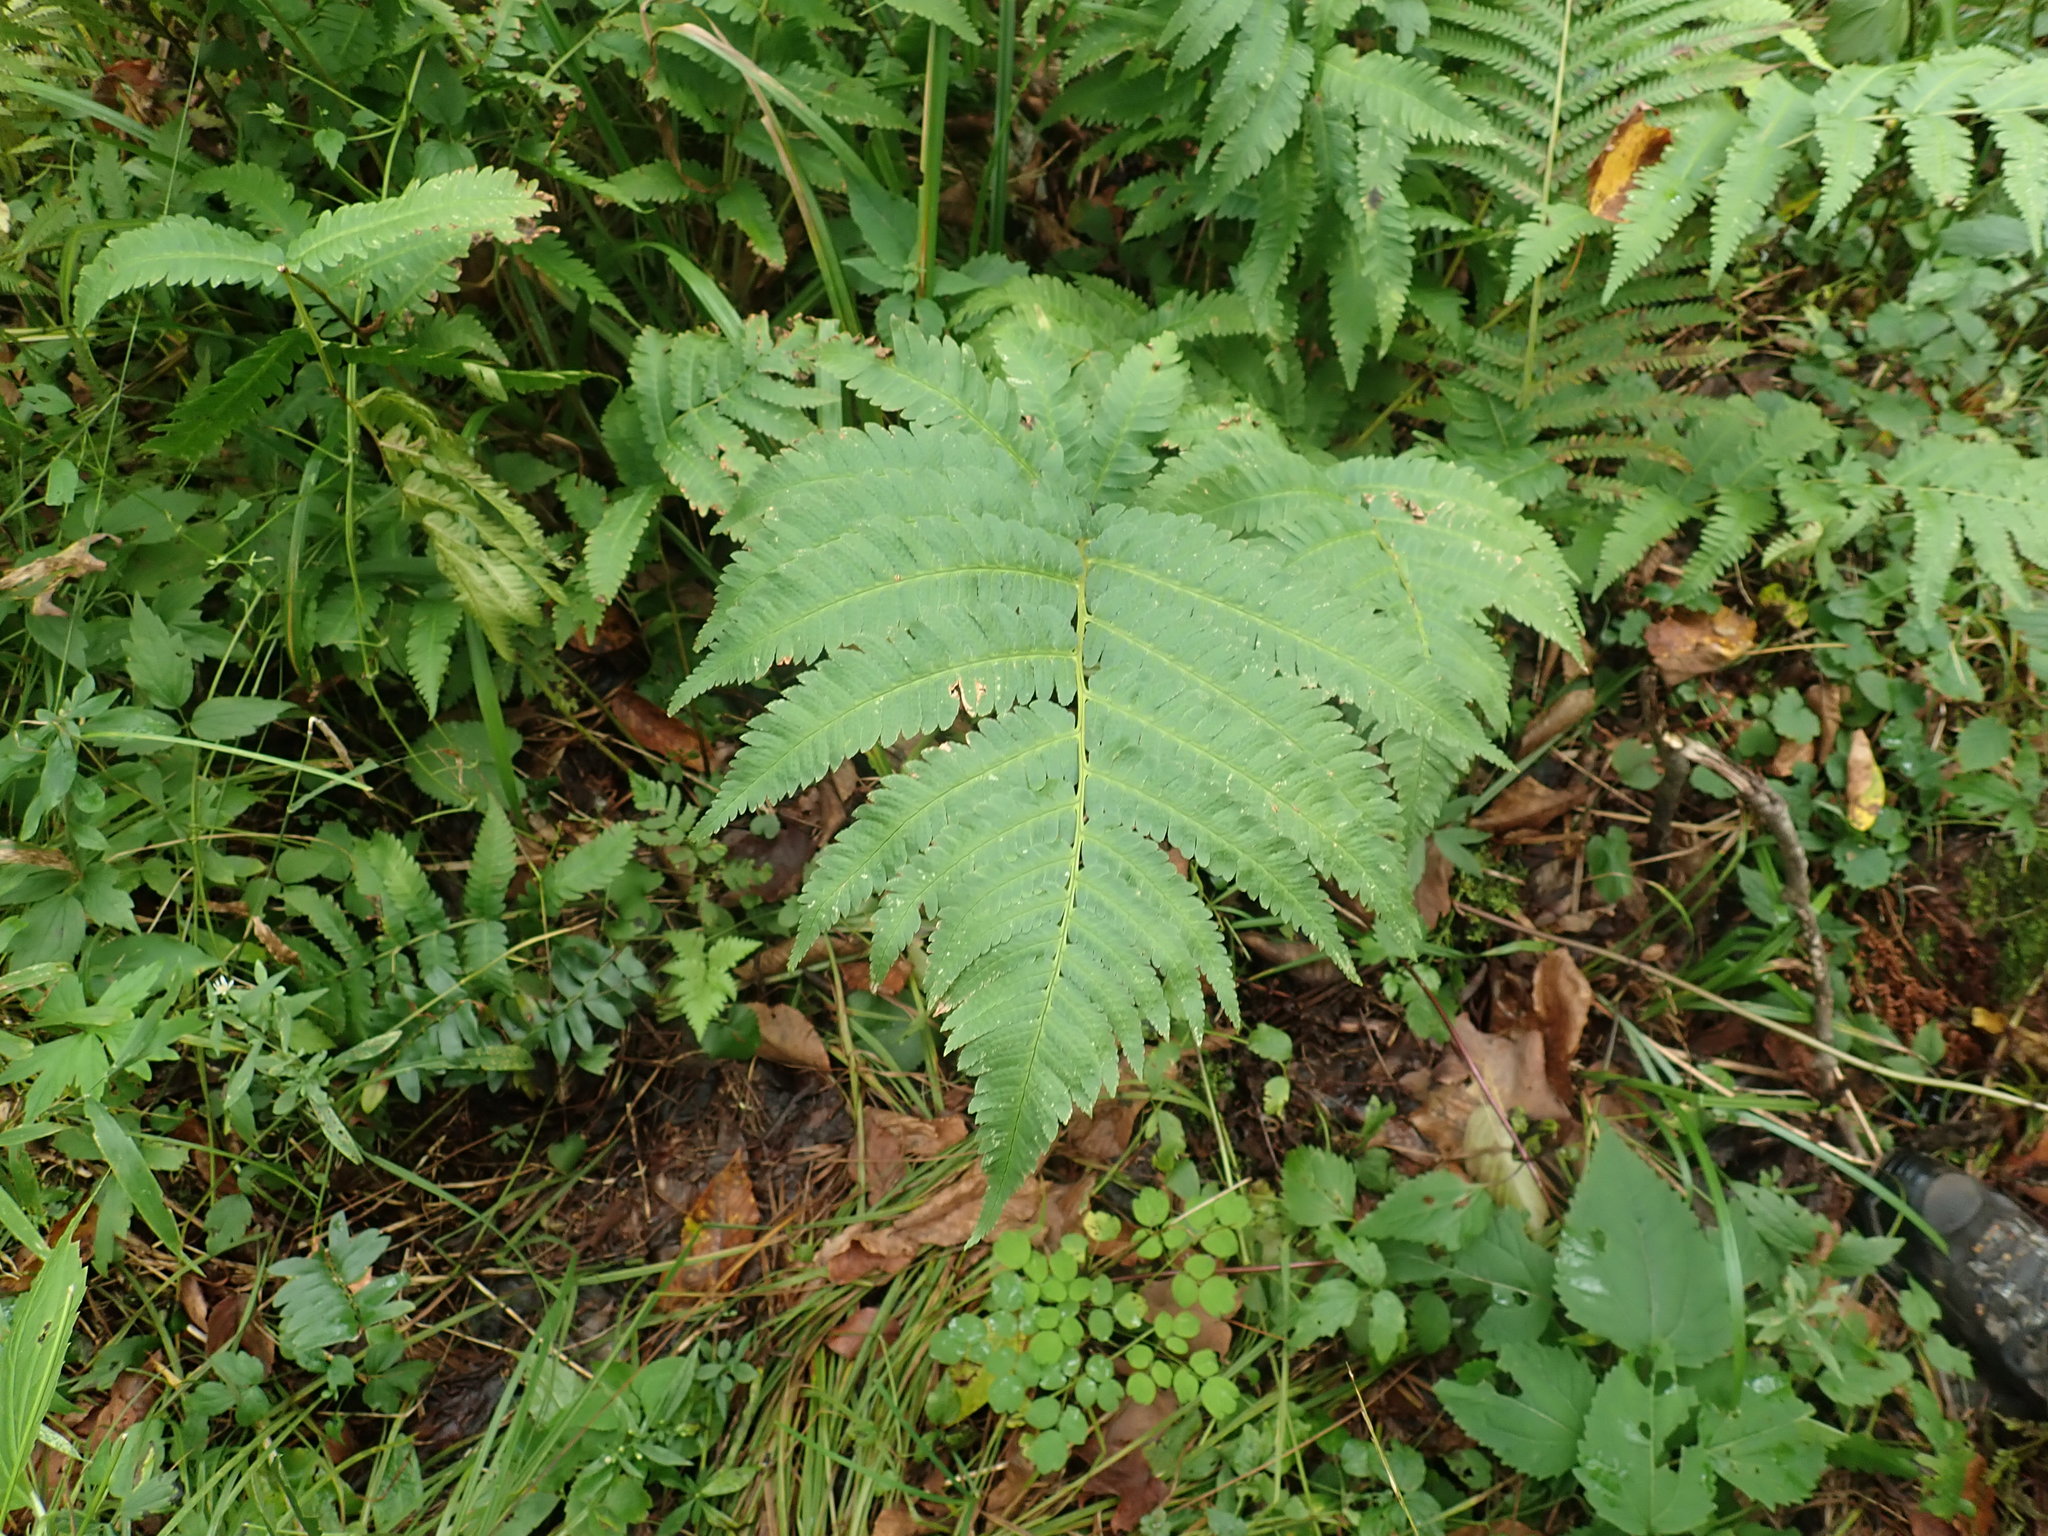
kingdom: Plantae
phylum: Tracheophyta
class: Polypodiopsida
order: Polypodiales
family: Dryopteridaceae
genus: Dryopteris
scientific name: Dryopteris goldieana
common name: Goldie's fern
